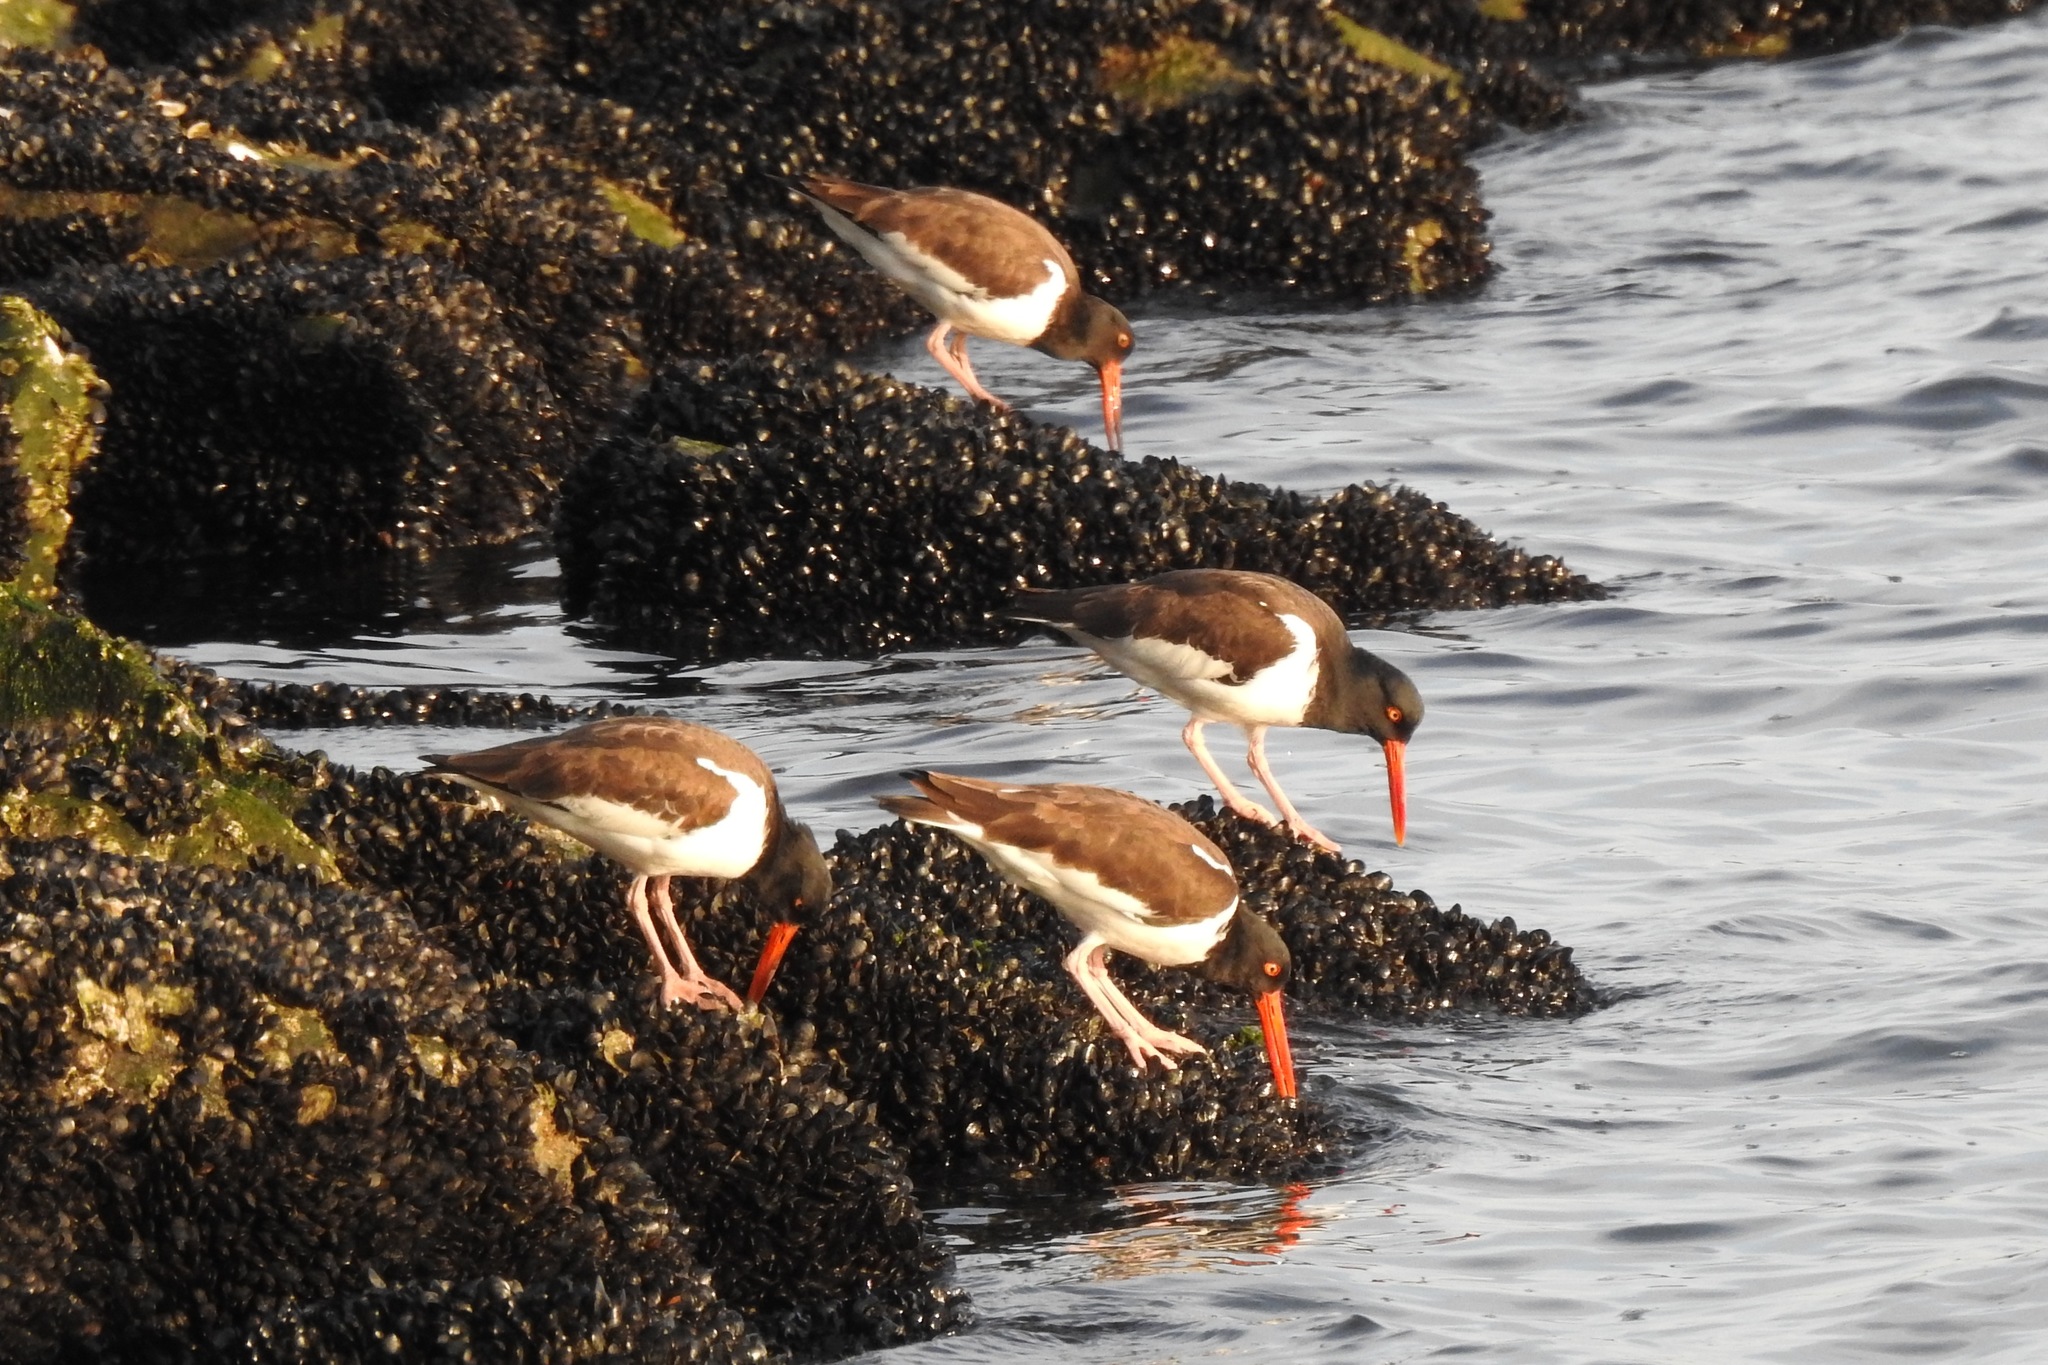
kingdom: Animalia
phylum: Chordata
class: Aves
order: Charadriiformes
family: Haematopodidae
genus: Haematopus
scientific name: Haematopus palliatus
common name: American oystercatcher
